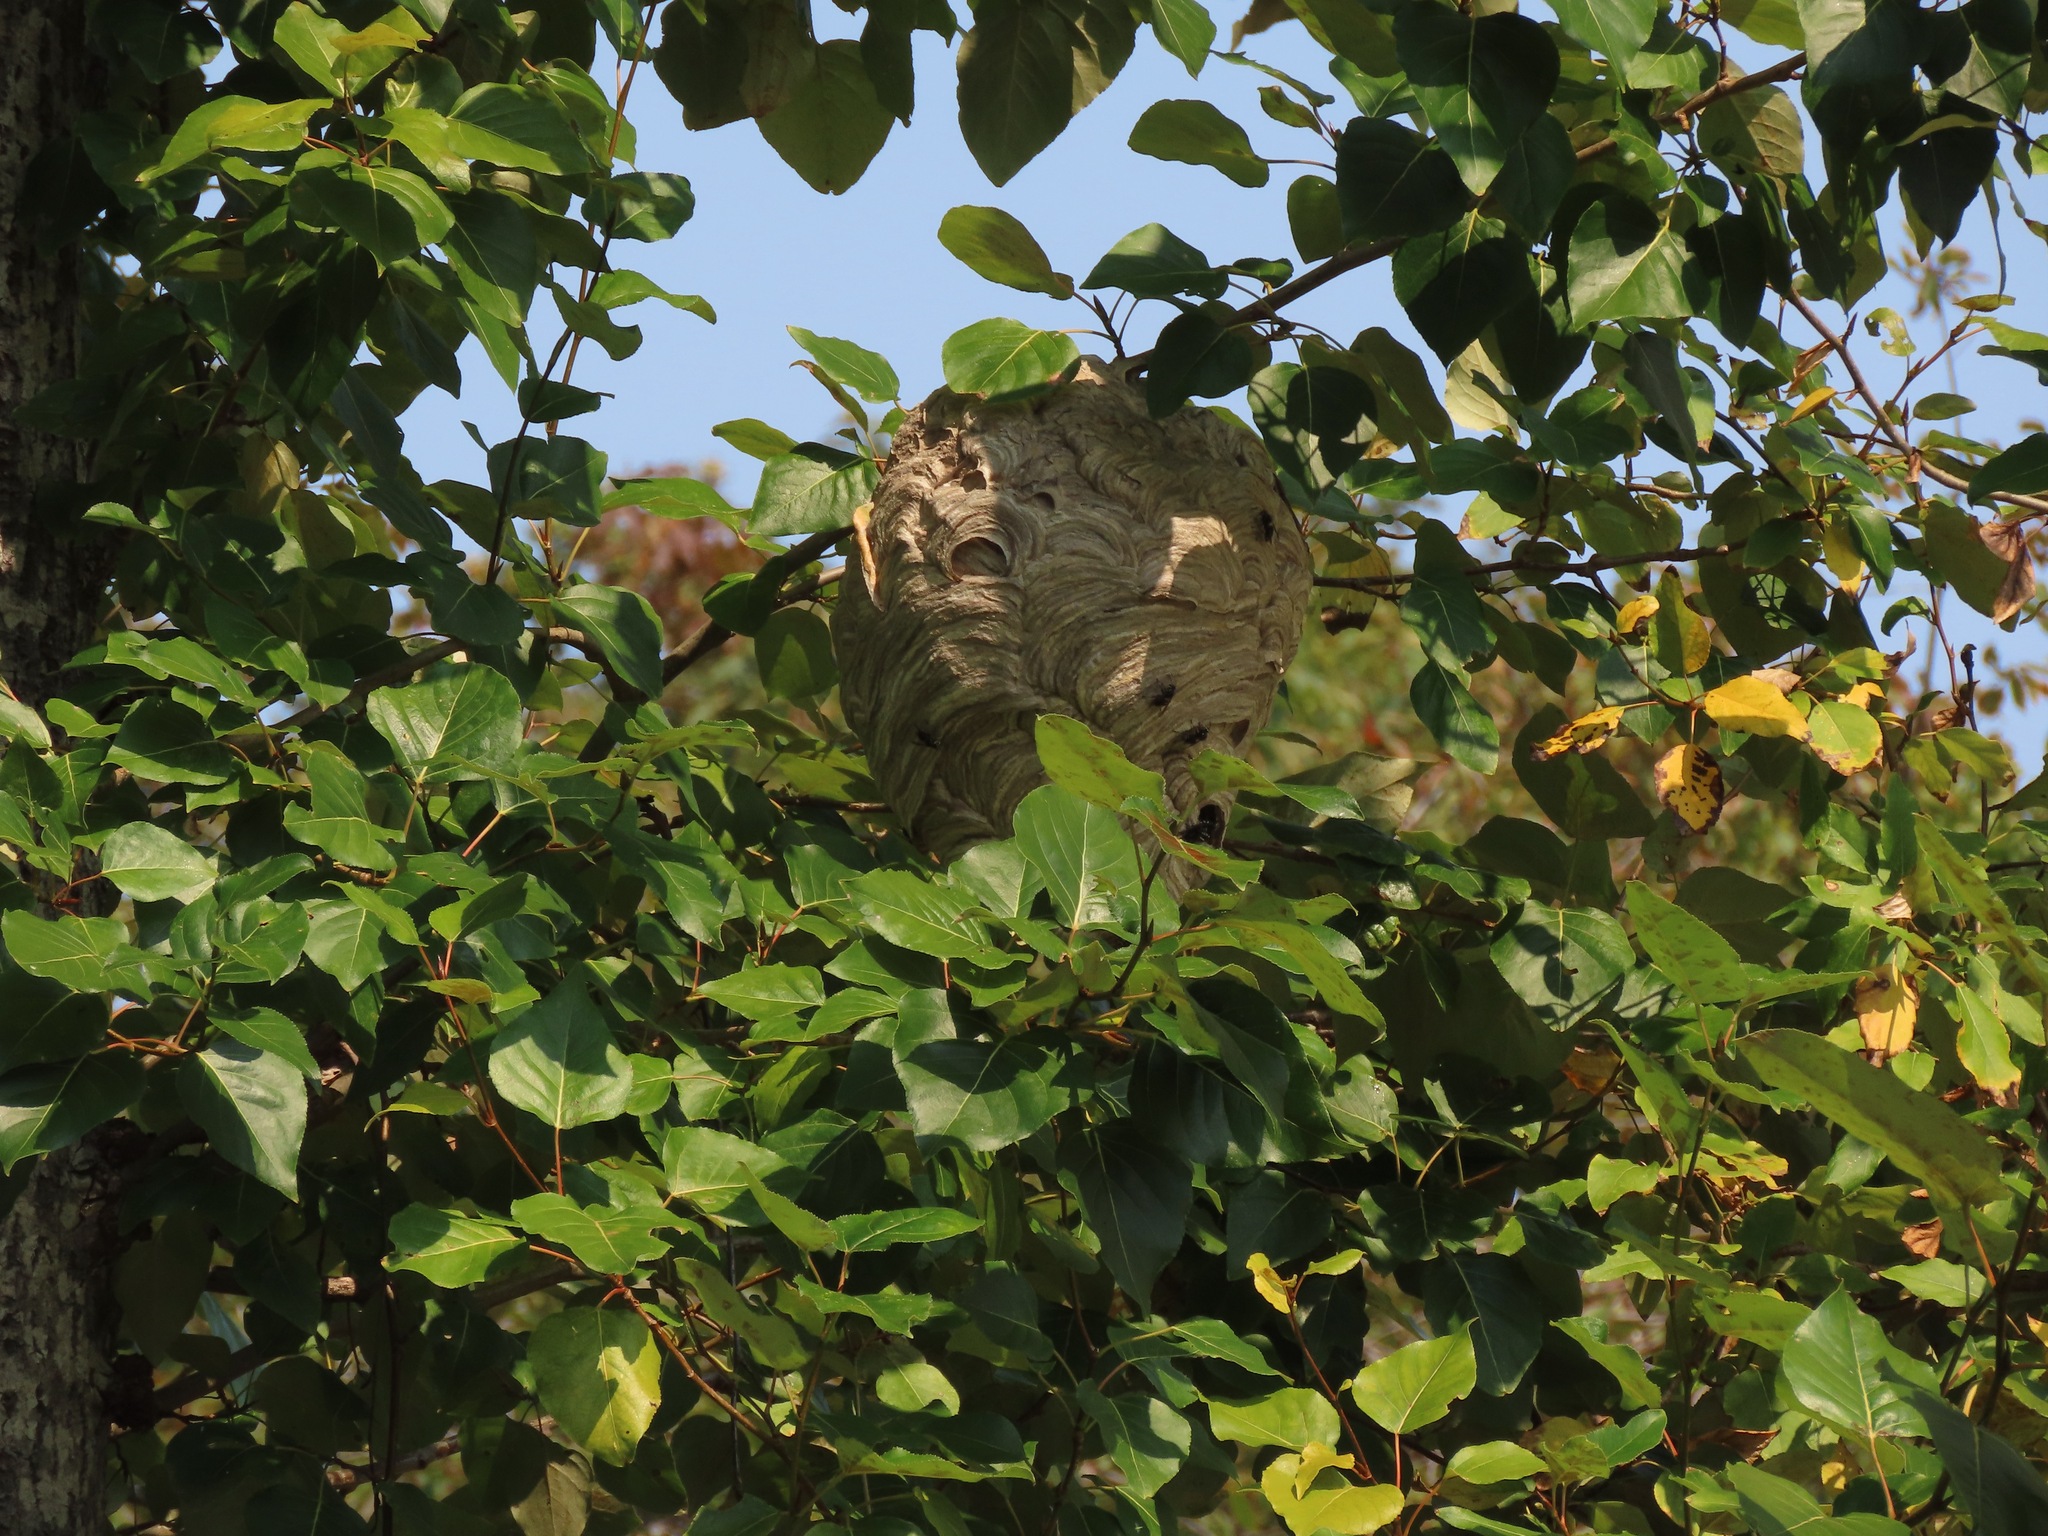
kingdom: Animalia
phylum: Arthropoda
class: Insecta
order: Hymenoptera
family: Vespidae
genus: Dolichovespula
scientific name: Dolichovespula maculata
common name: Bald-faced hornet
